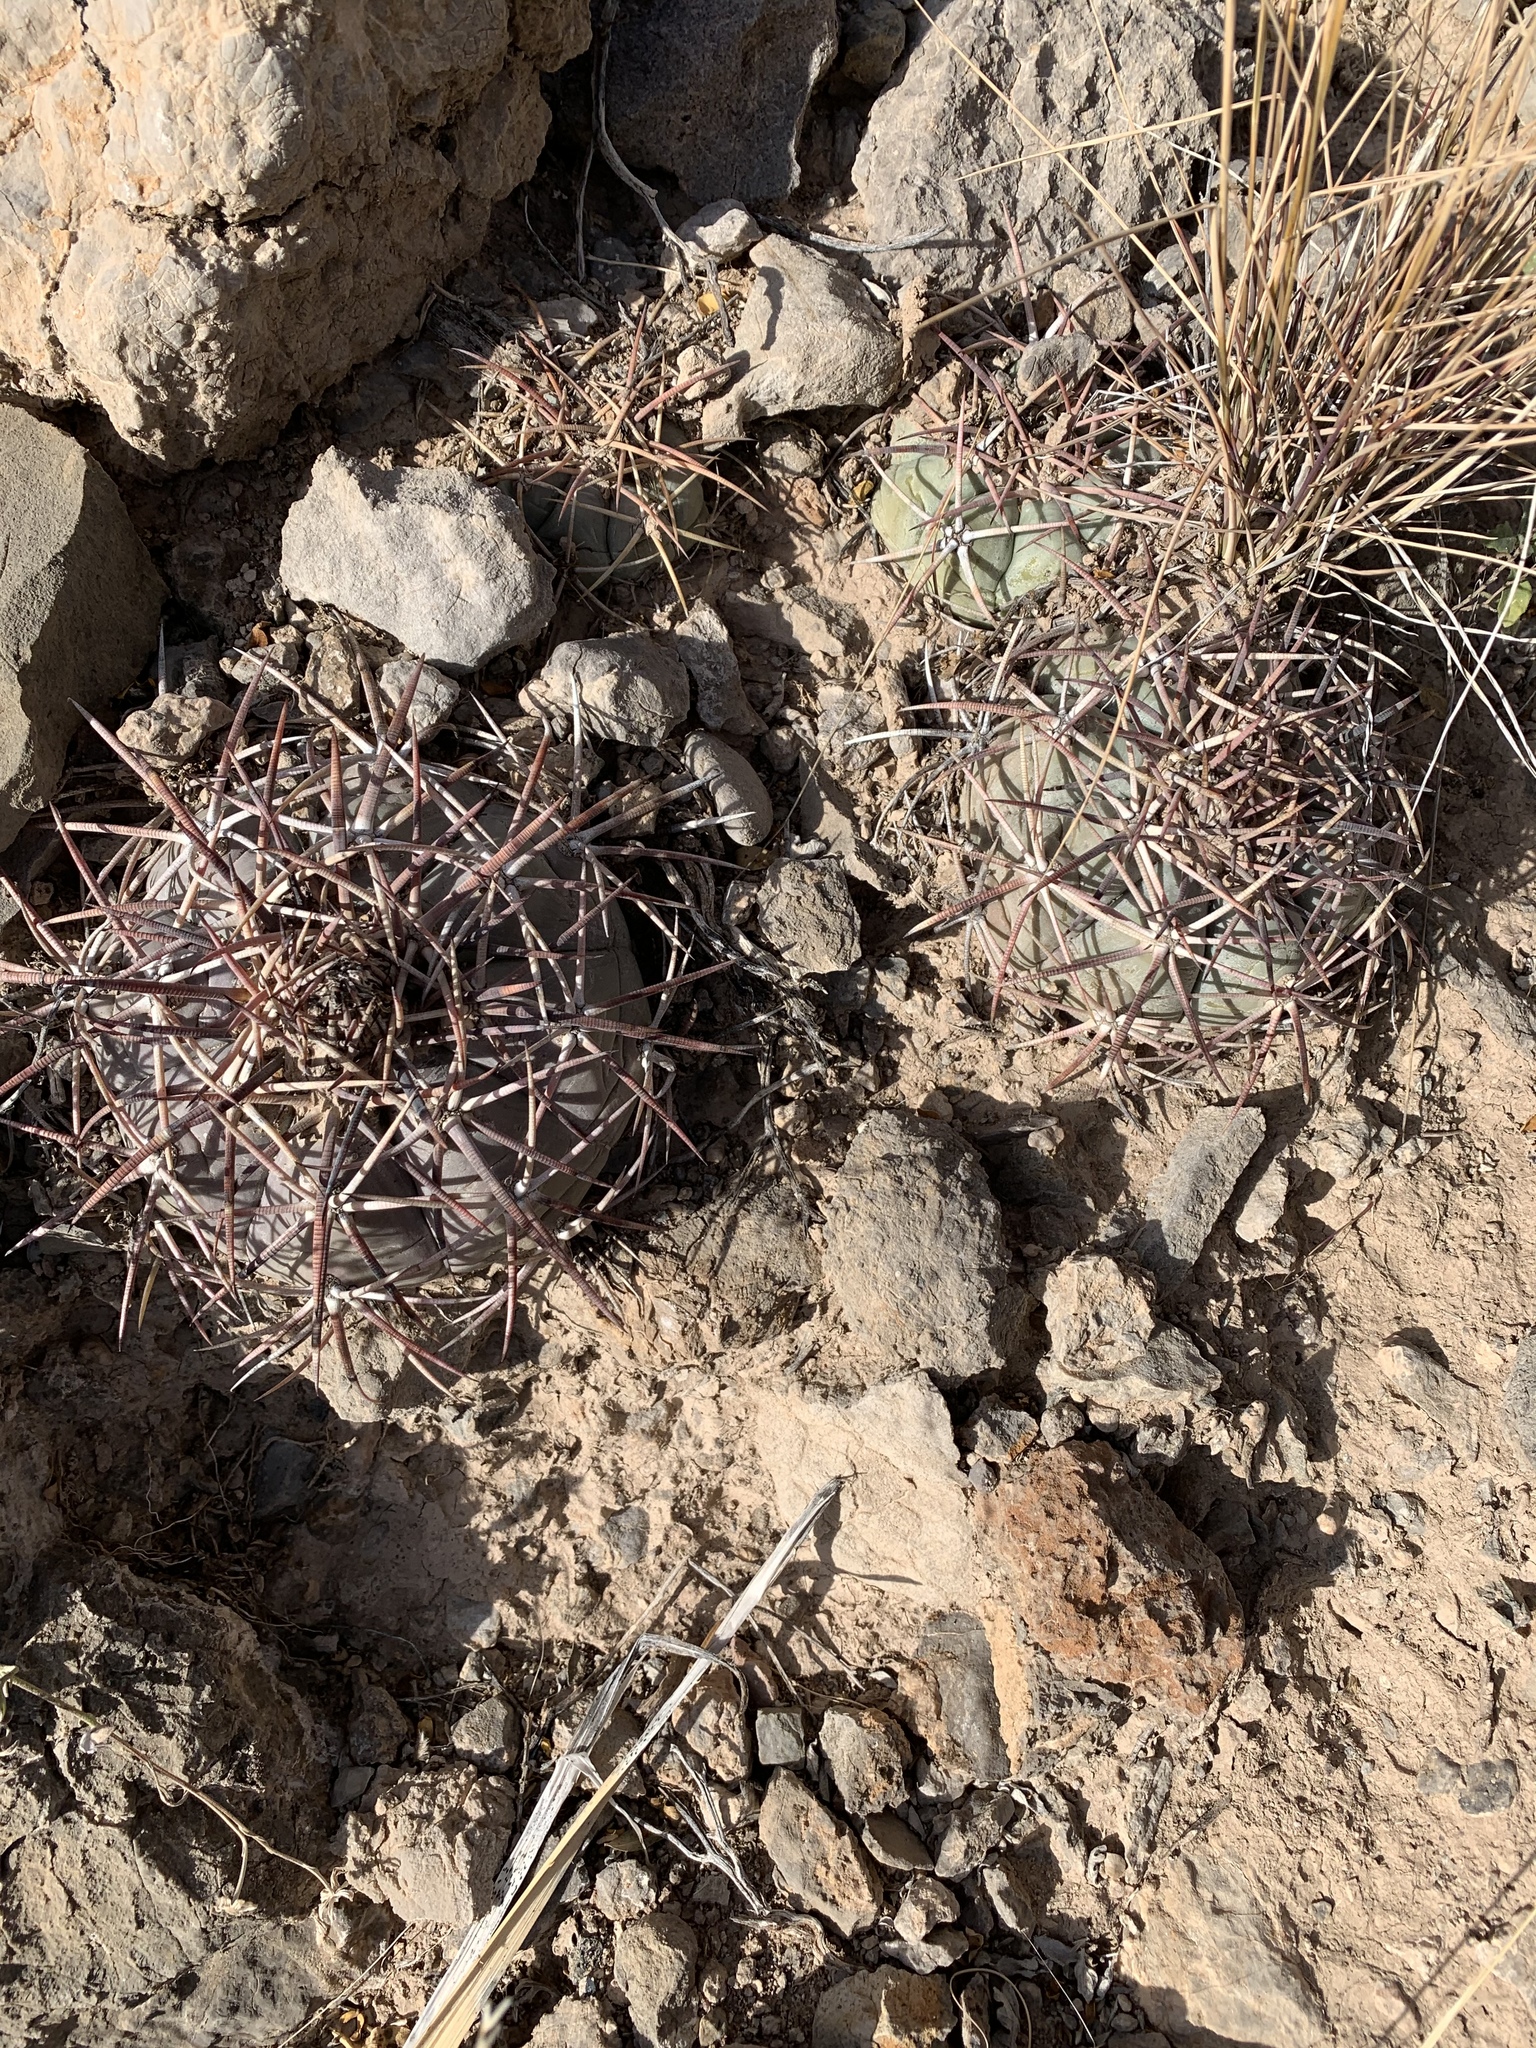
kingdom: Plantae
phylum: Tracheophyta
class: Magnoliopsida
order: Caryophyllales
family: Cactaceae
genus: Echinocactus
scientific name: Echinocactus horizonthalonius
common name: Devilshead
